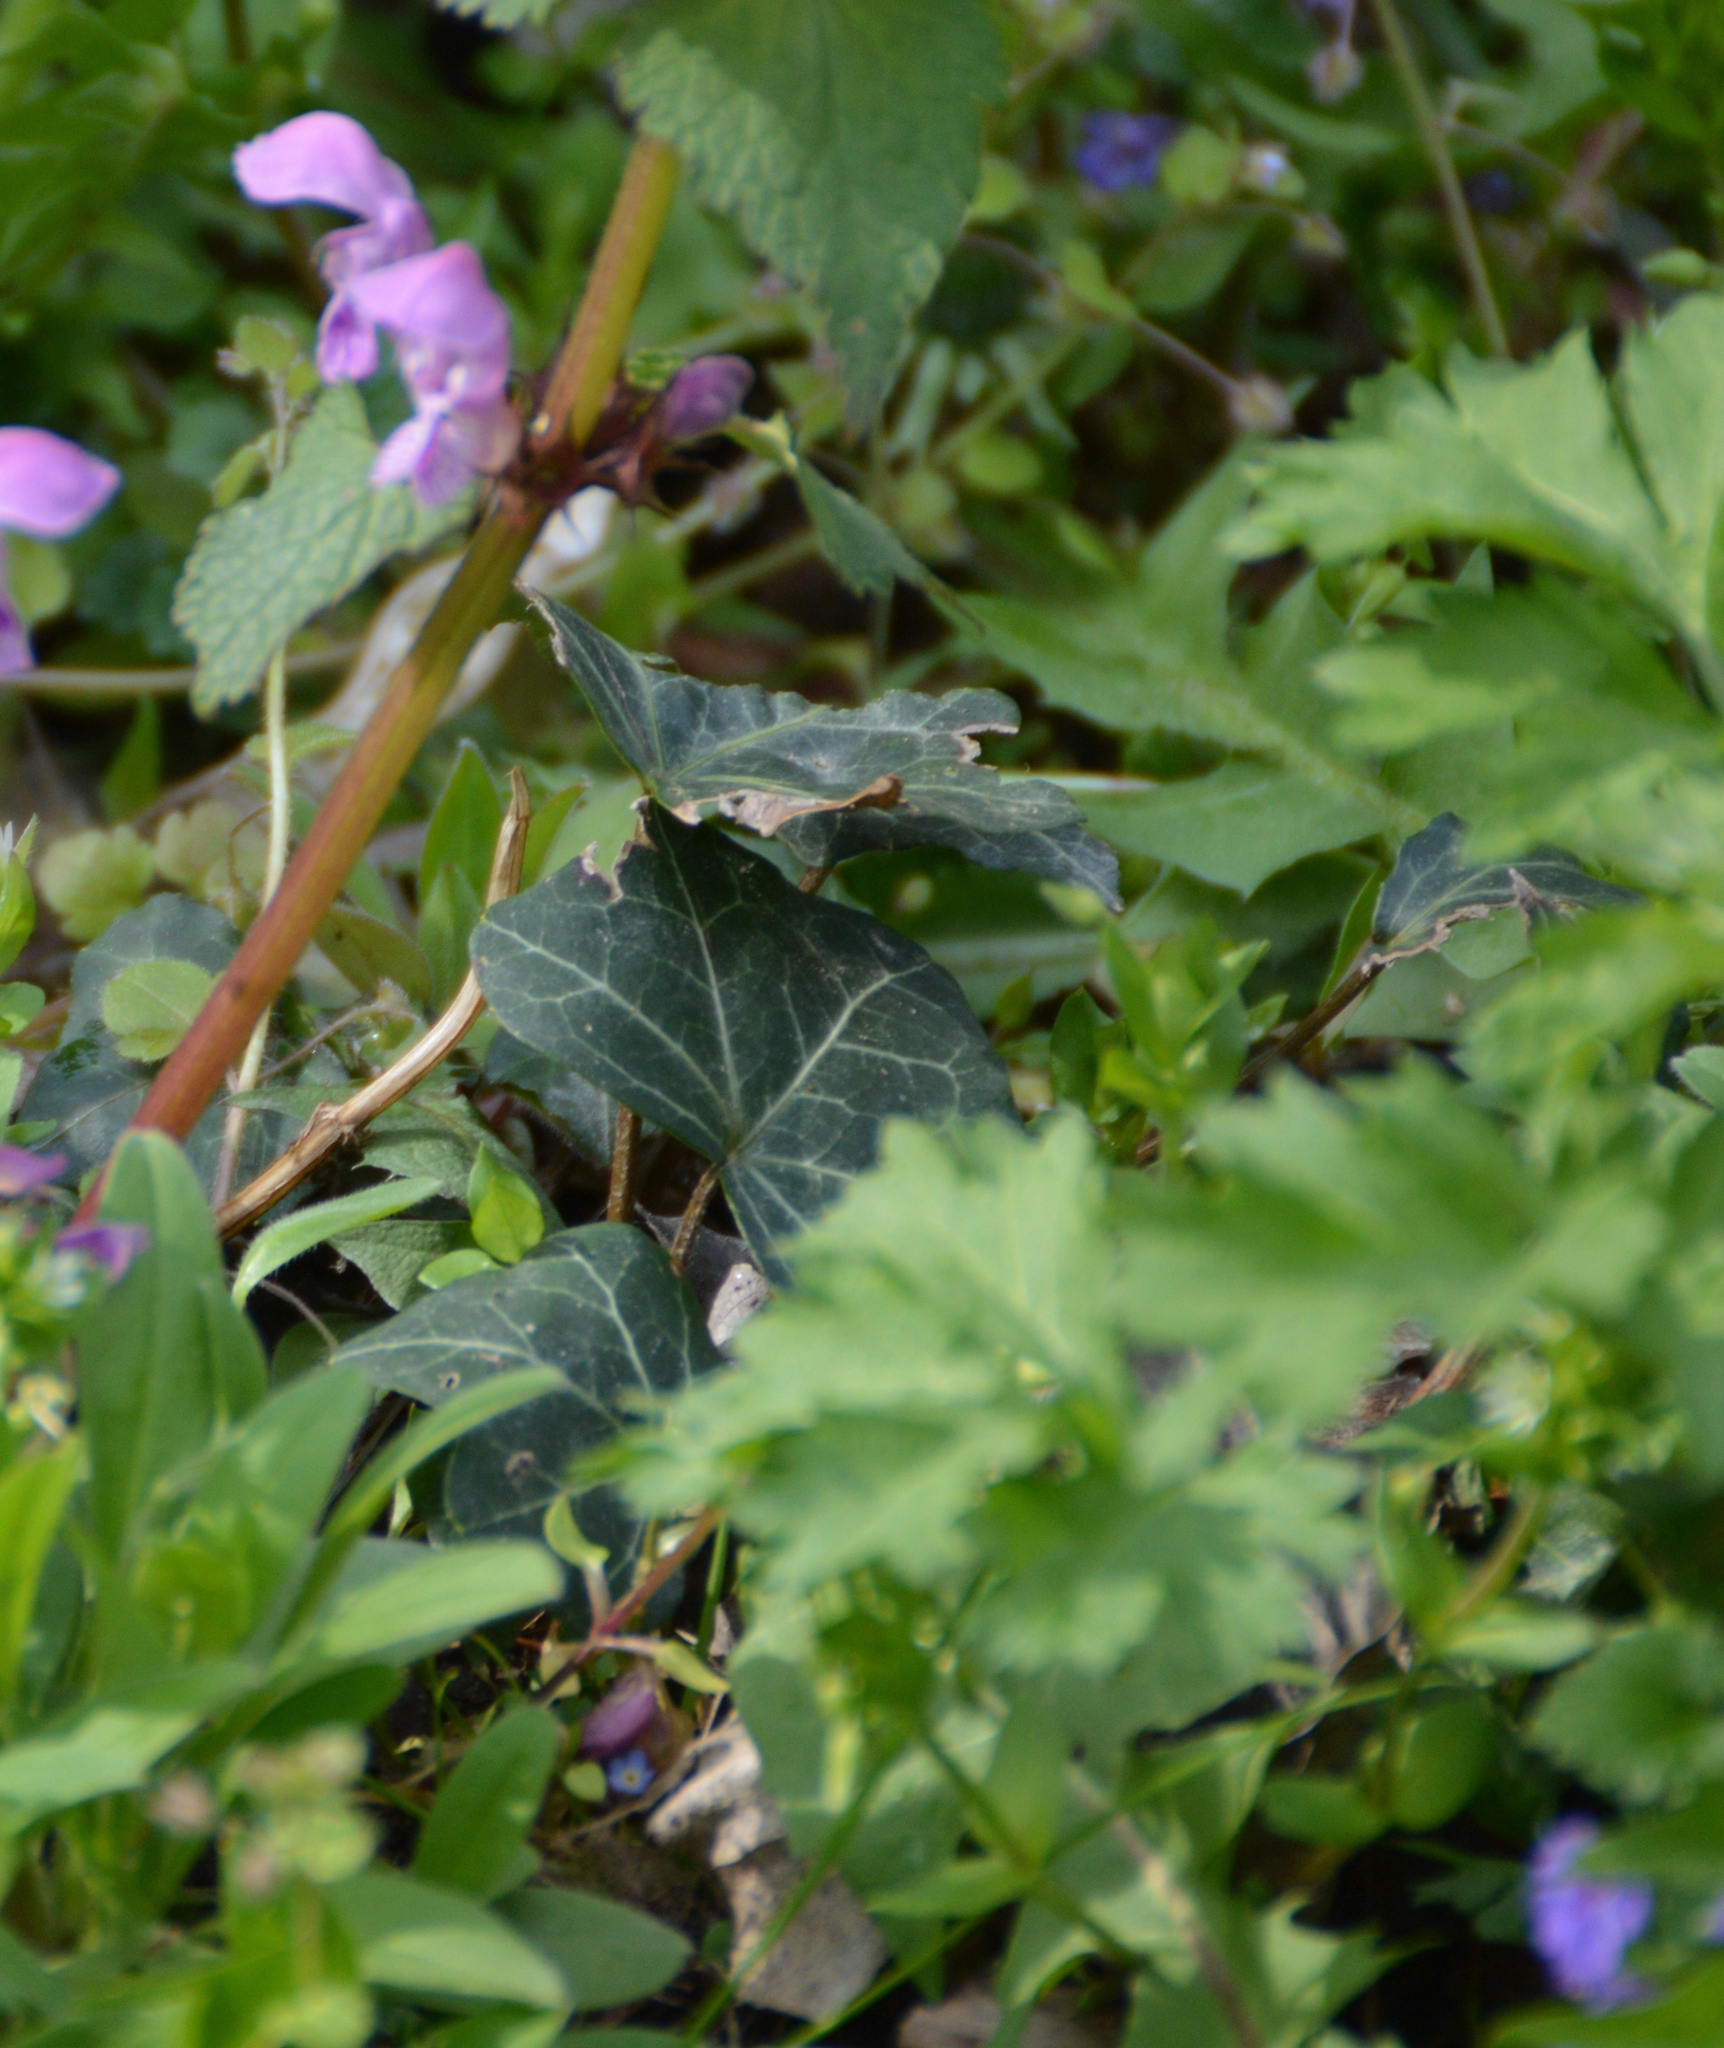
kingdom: Plantae
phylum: Tracheophyta
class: Magnoliopsida
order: Apiales
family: Araliaceae
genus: Hedera
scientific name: Hedera helix
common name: Ivy
